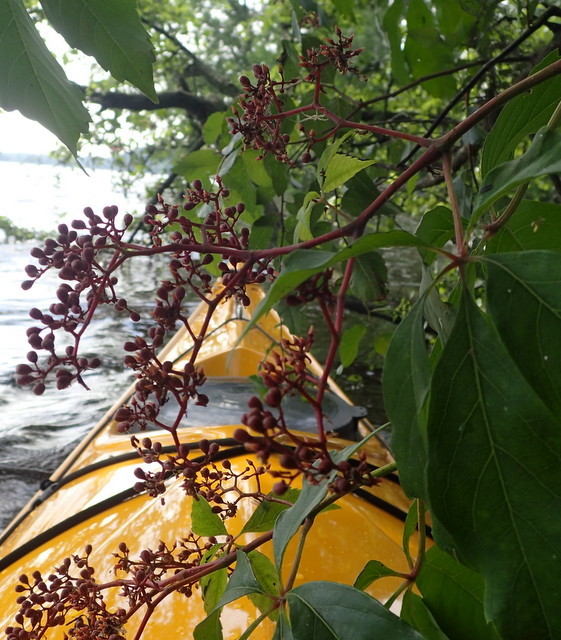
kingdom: Plantae
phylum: Tracheophyta
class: Magnoliopsida
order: Vitales
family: Vitaceae
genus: Parthenocissus
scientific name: Parthenocissus quinquefolia
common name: Virginia-creeper
